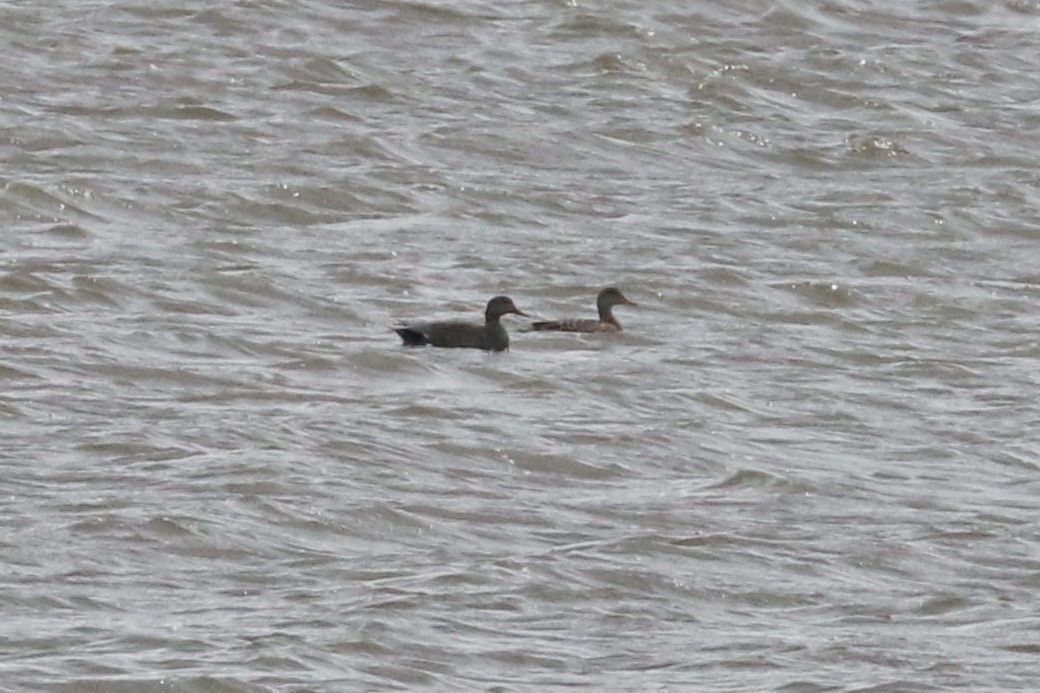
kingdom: Animalia
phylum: Chordata
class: Aves
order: Anseriformes
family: Anatidae
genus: Mareca
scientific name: Mareca strepera
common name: Gadwall
